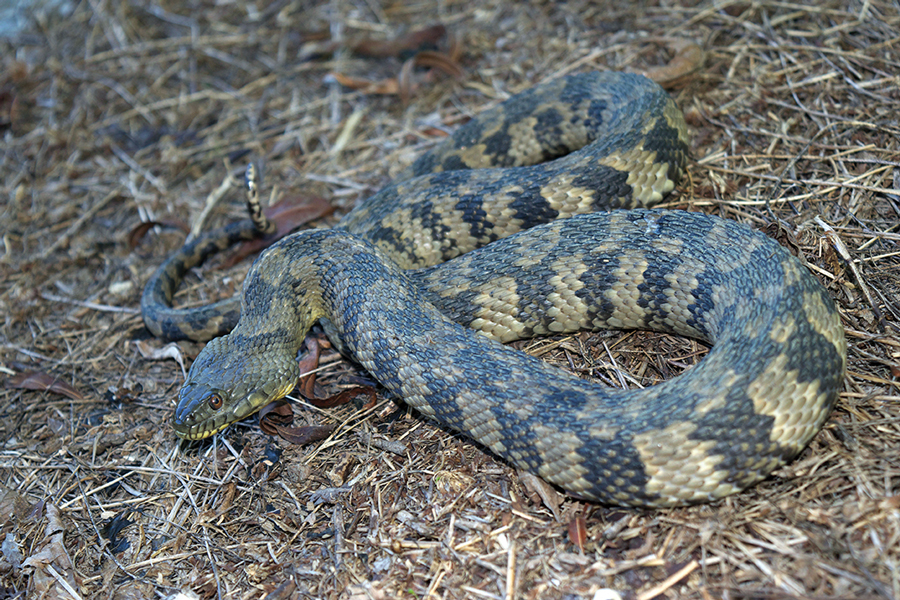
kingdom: Animalia
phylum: Chordata
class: Squamata
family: Colubridae
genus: Nerodia
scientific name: Nerodia rhombifer
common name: Diamondback water snake
